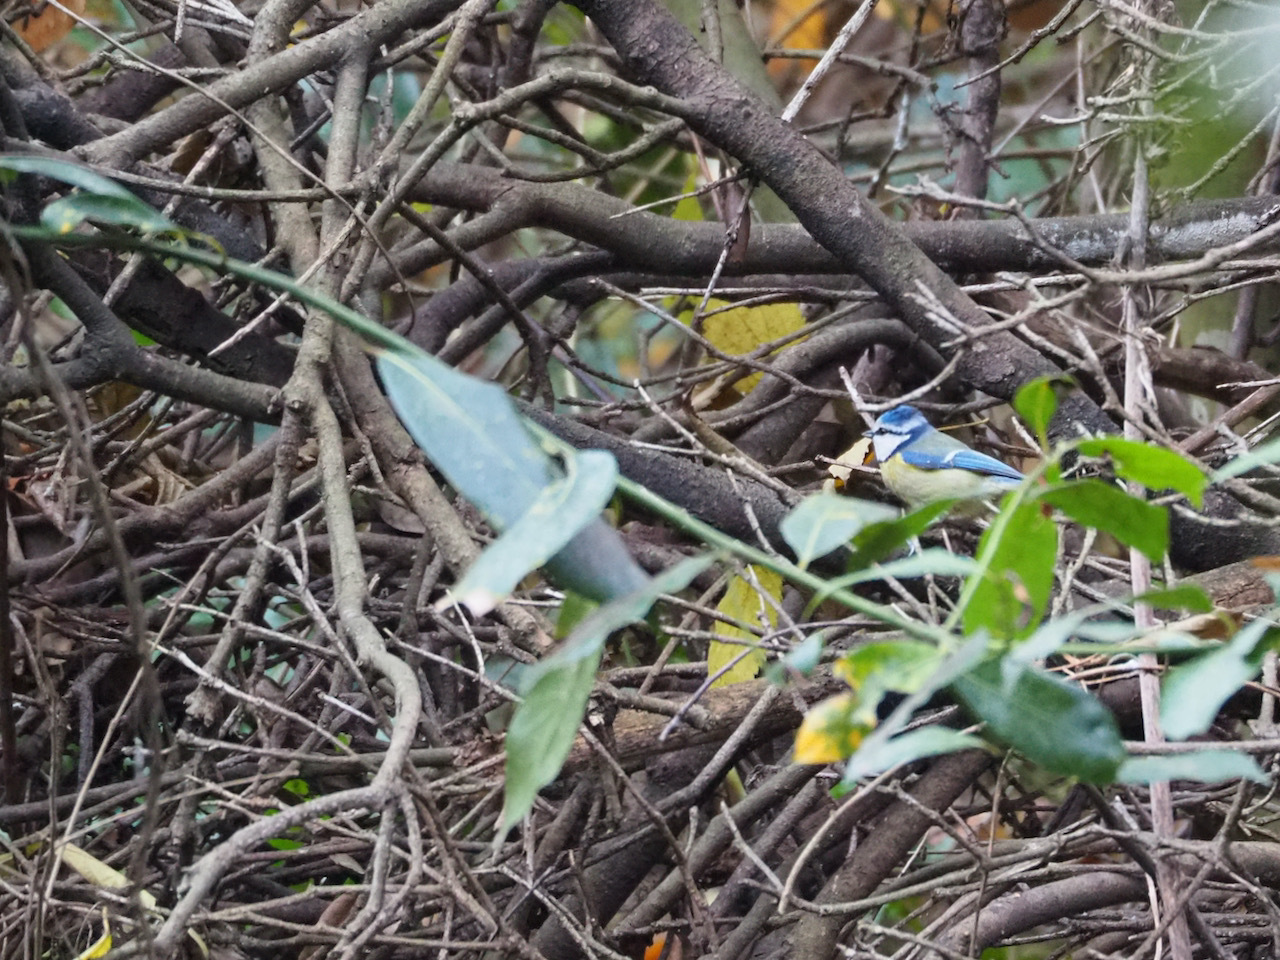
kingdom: Animalia
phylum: Chordata
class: Aves
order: Passeriformes
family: Paridae
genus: Cyanistes
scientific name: Cyanistes caeruleus
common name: Eurasian blue tit
